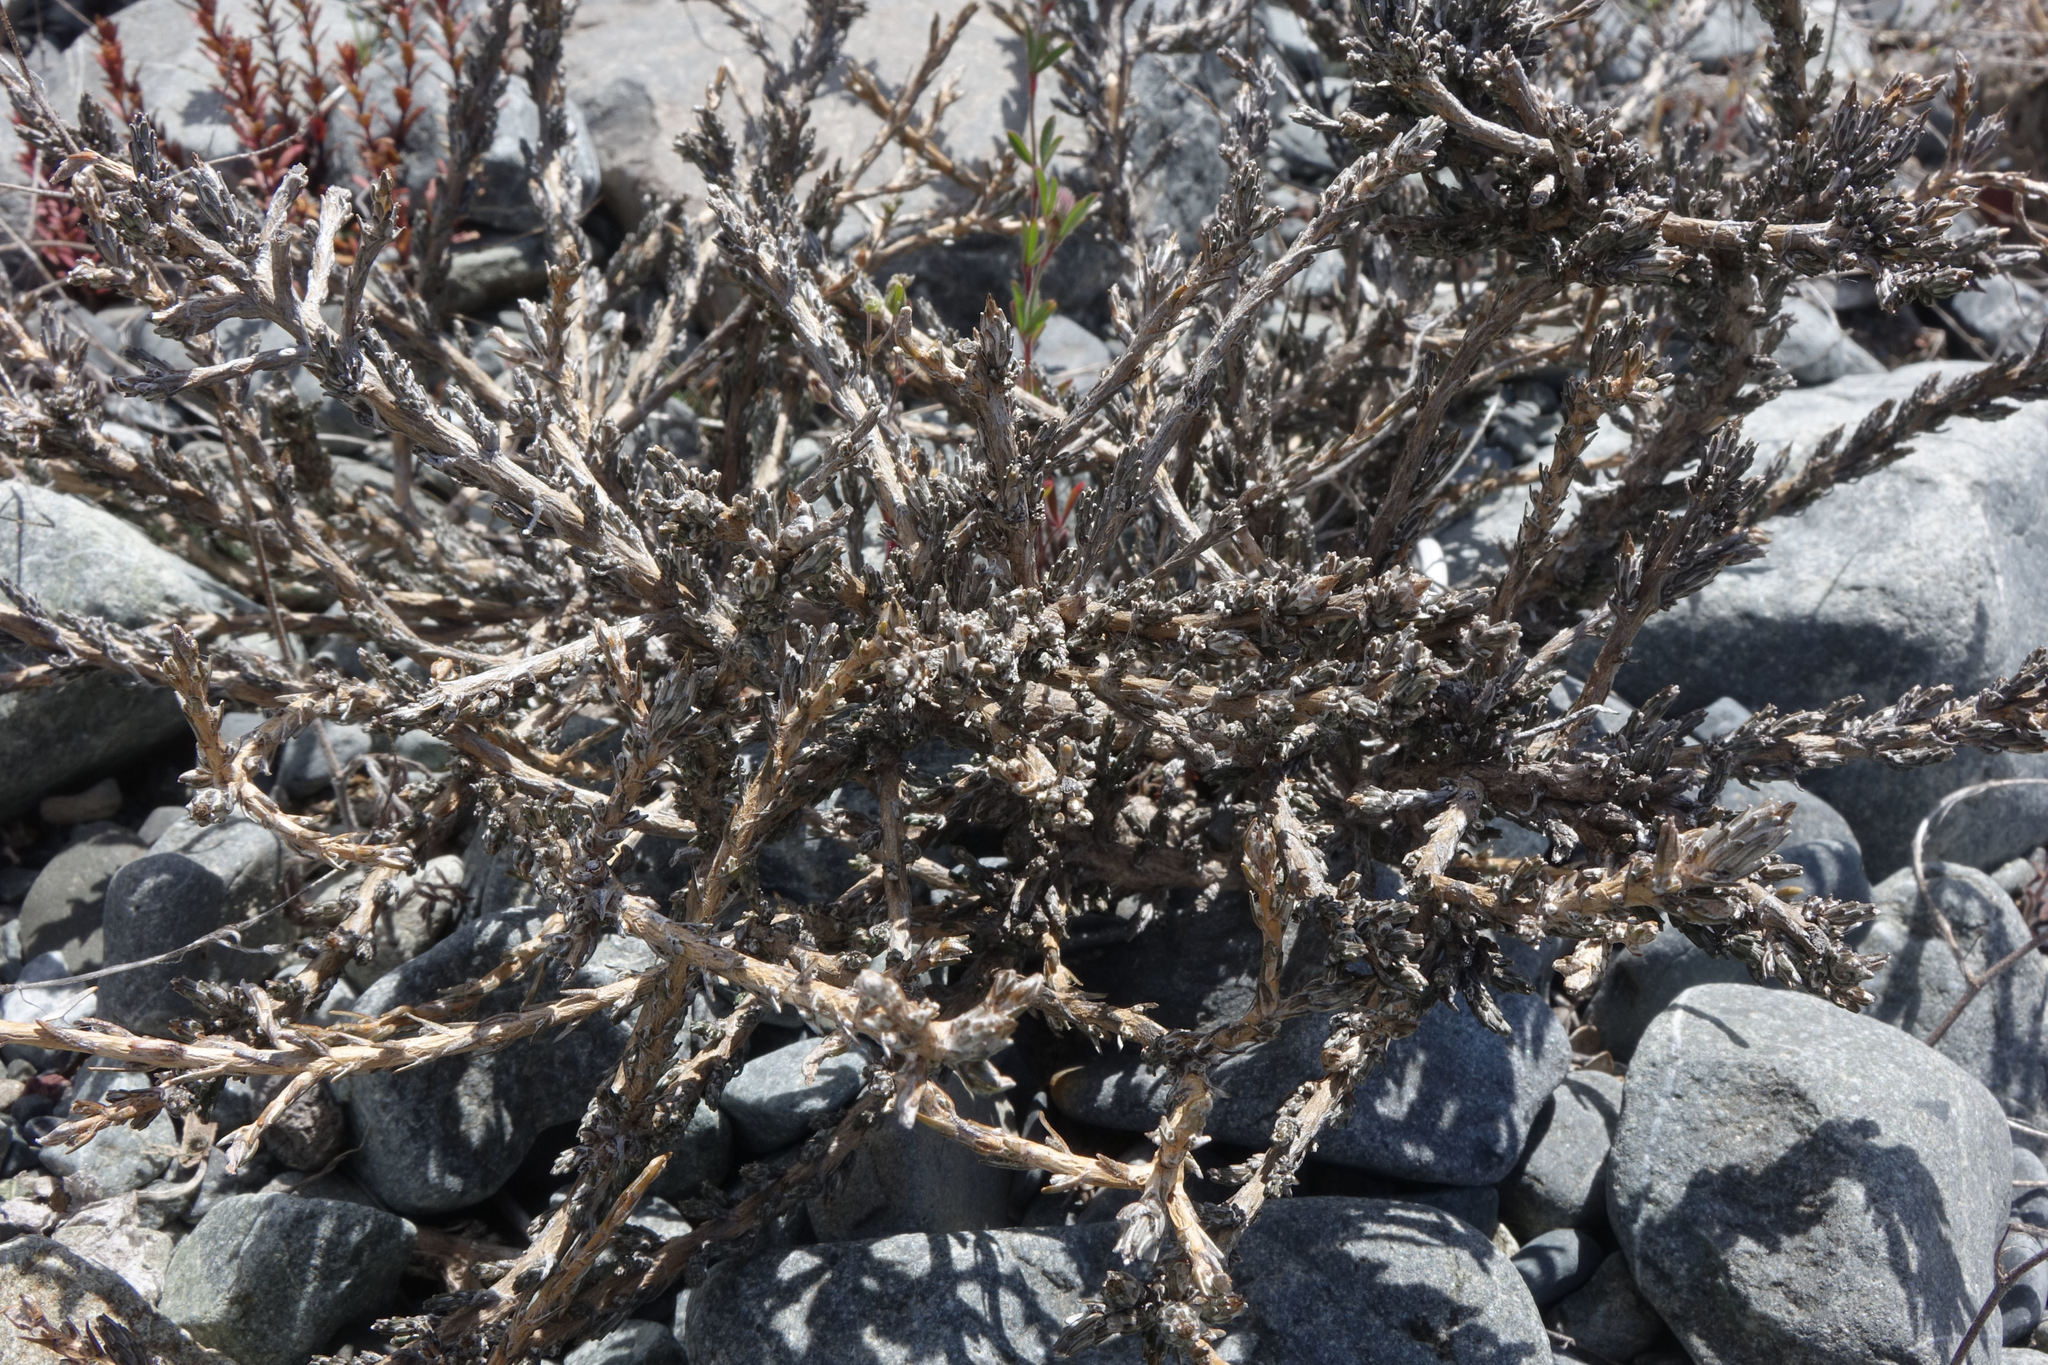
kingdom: Plantae
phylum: Tracheophyta
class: Magnoliopsida
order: Asterales
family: Asteraceae
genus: Ozothamnus
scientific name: Ozothamnus depressus
